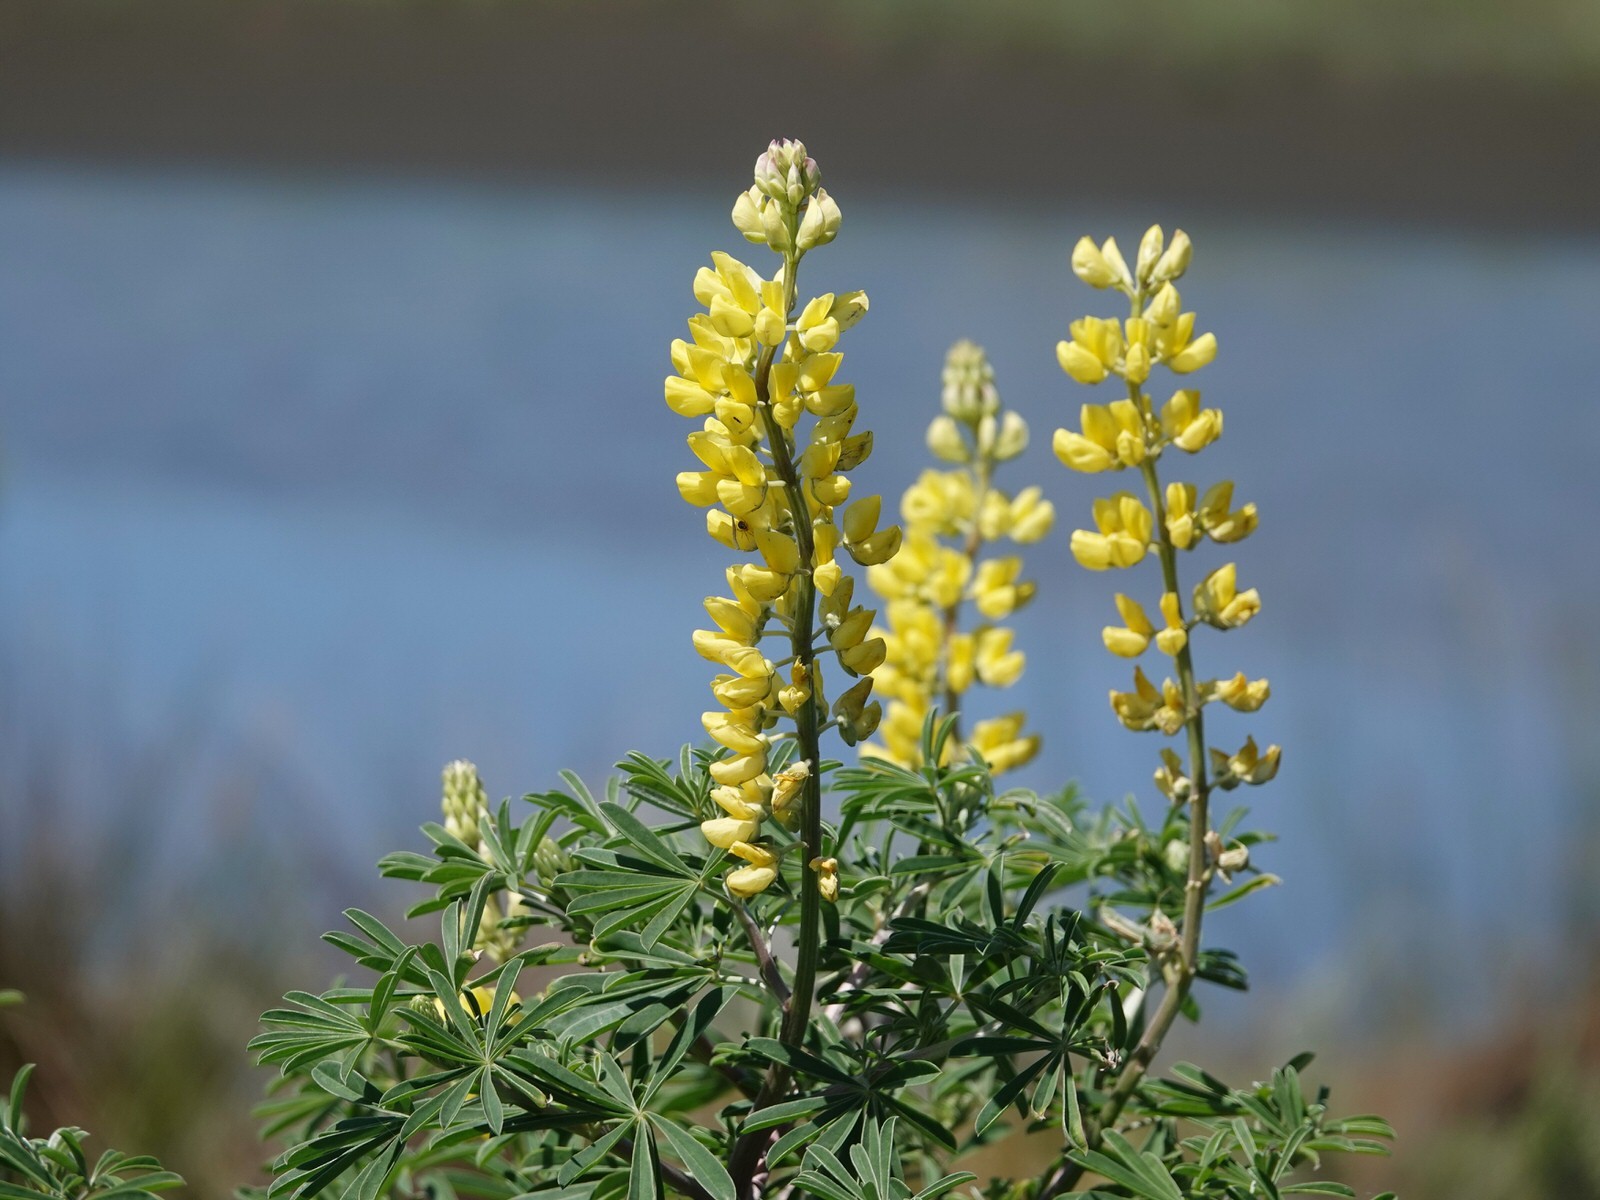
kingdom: Plantae
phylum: Tracheophyta
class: Magnoliopsida
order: Fabales
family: Fabaceae
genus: Lupinus
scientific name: Lupinus arboreus
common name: Yellow bush lupine
